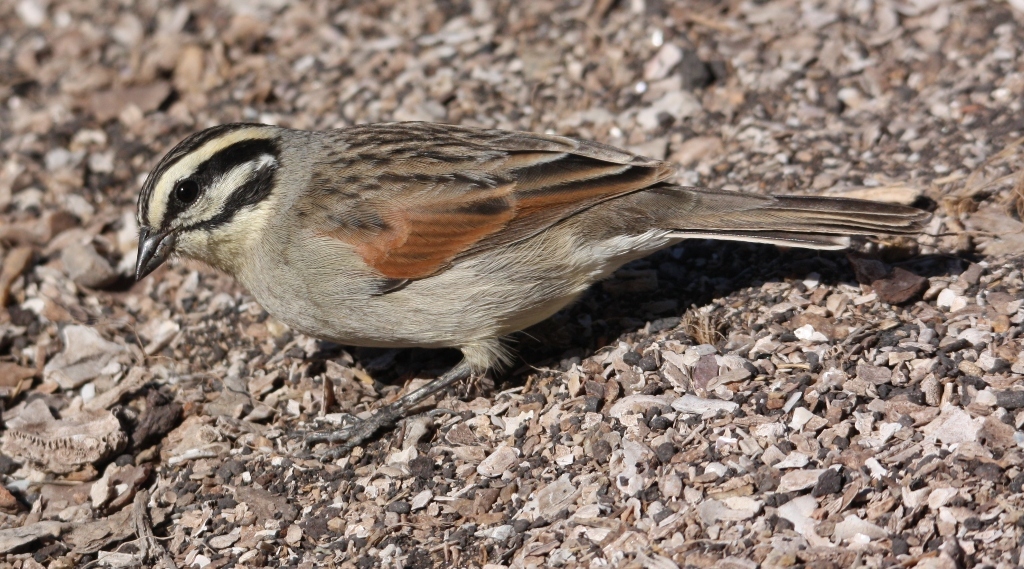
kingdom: Animalia
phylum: Chordata
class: Aves
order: Passeriformes
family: Emberizidae
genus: Emberiza
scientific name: Emberiza capensis
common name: Cape bunting
